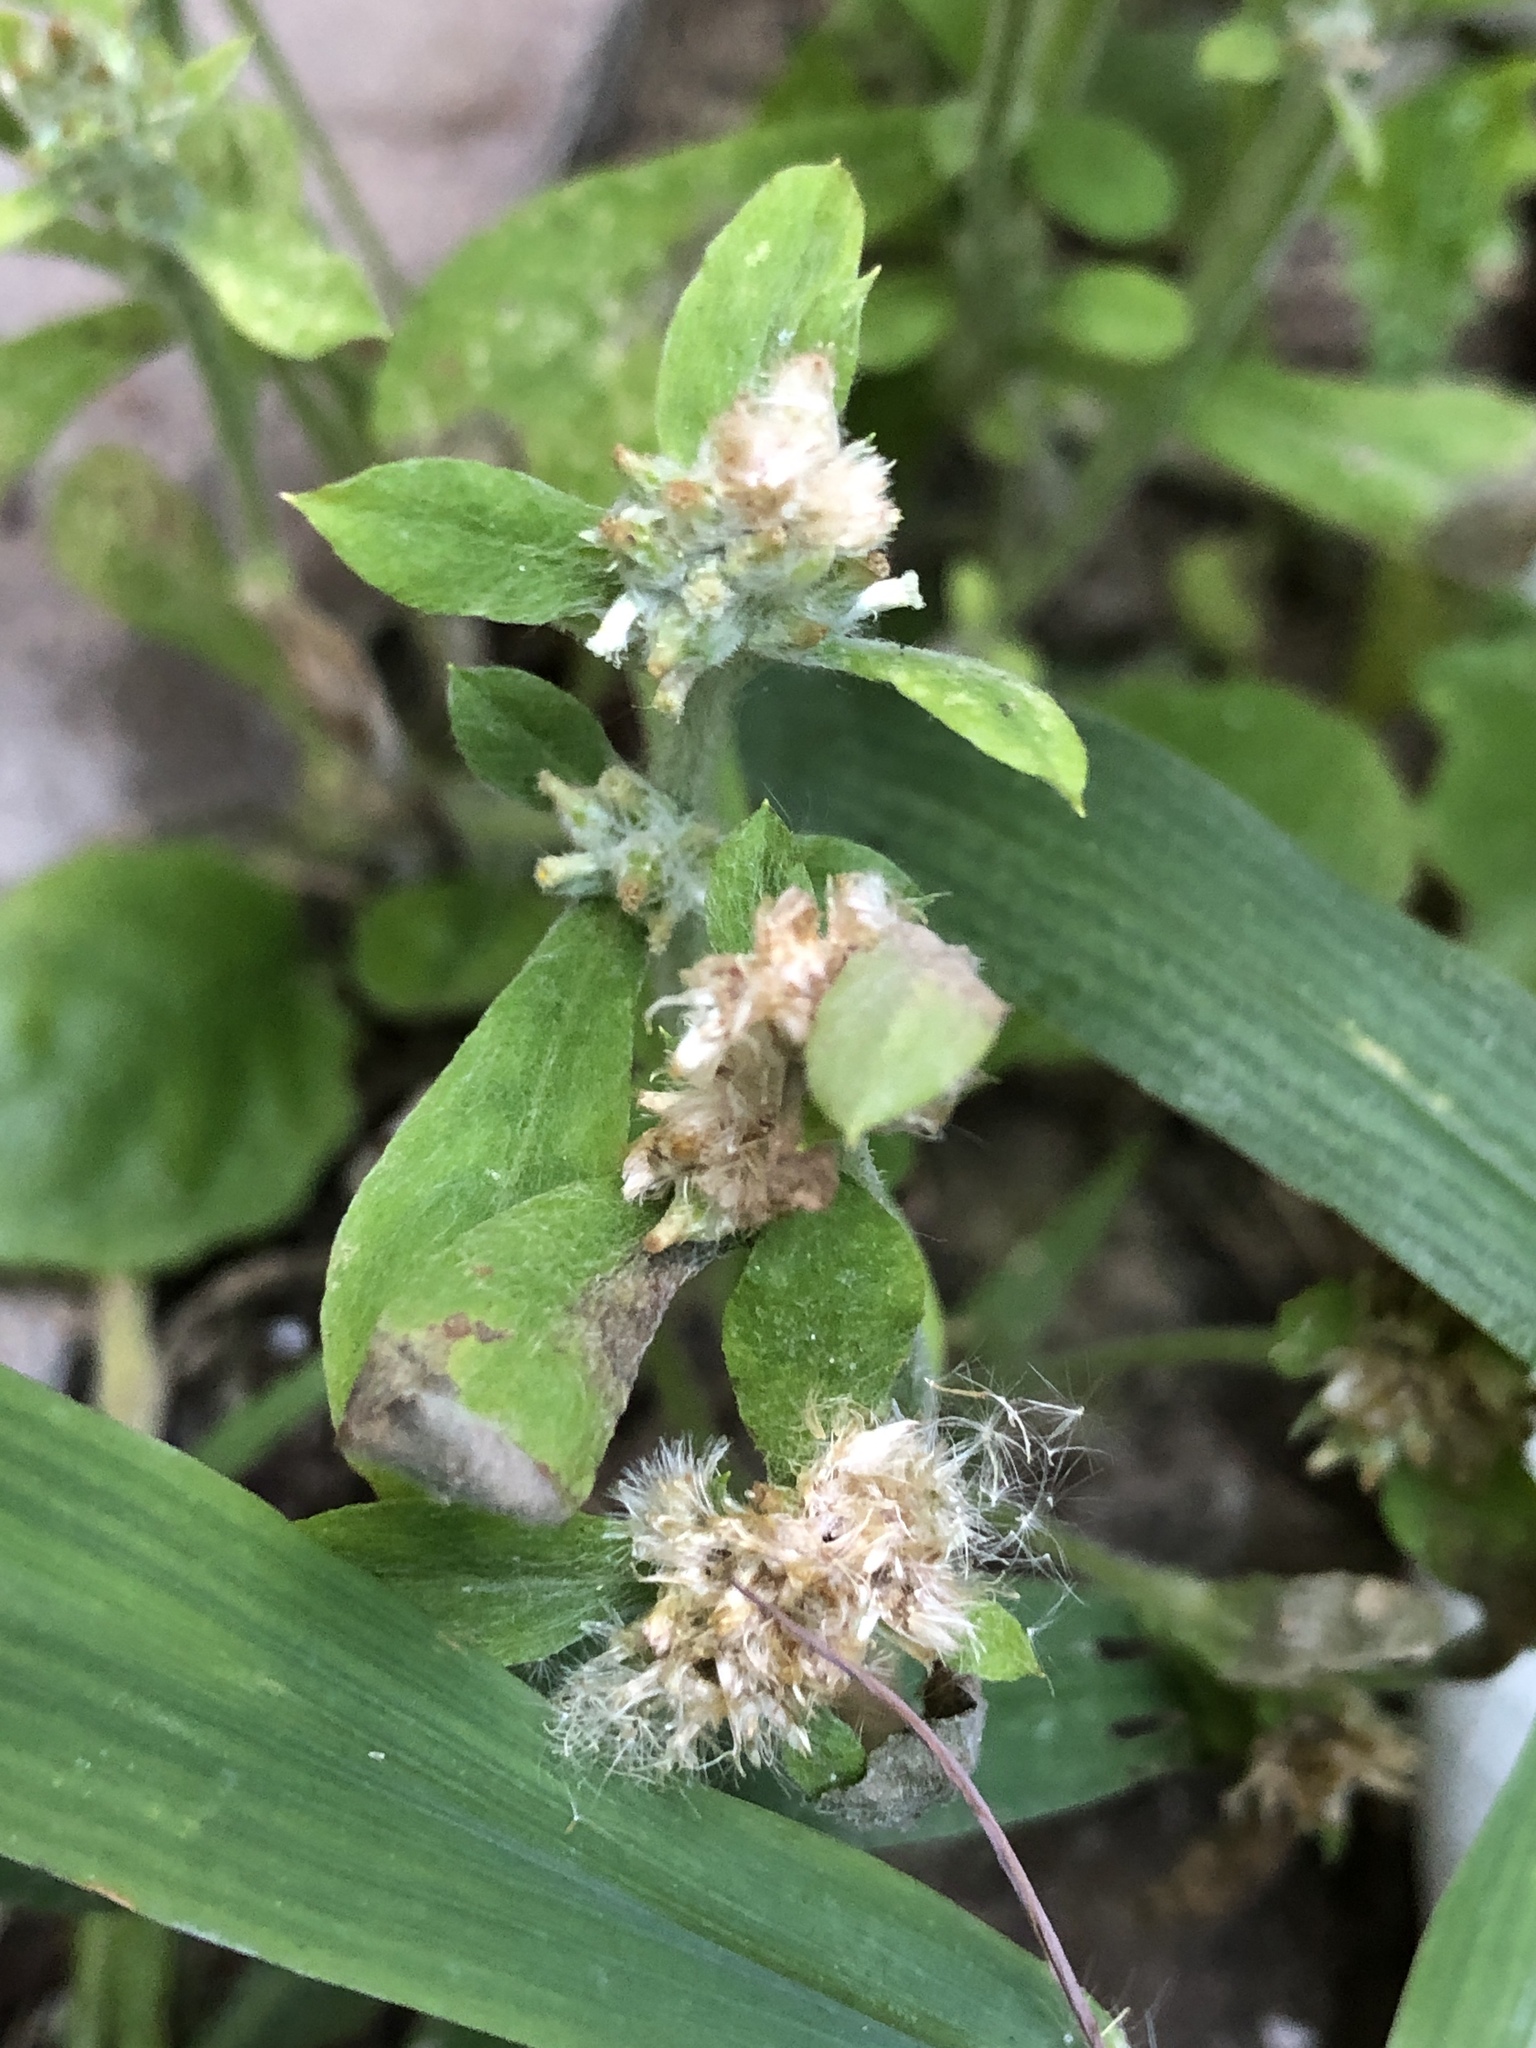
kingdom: Plantae
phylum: Tracheophyta
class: Magnoliopsida
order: Asterales
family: Asteraceae
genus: Gamochaeta
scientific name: Gamochaeta pensylvanica
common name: Pennsylvania everlasting
